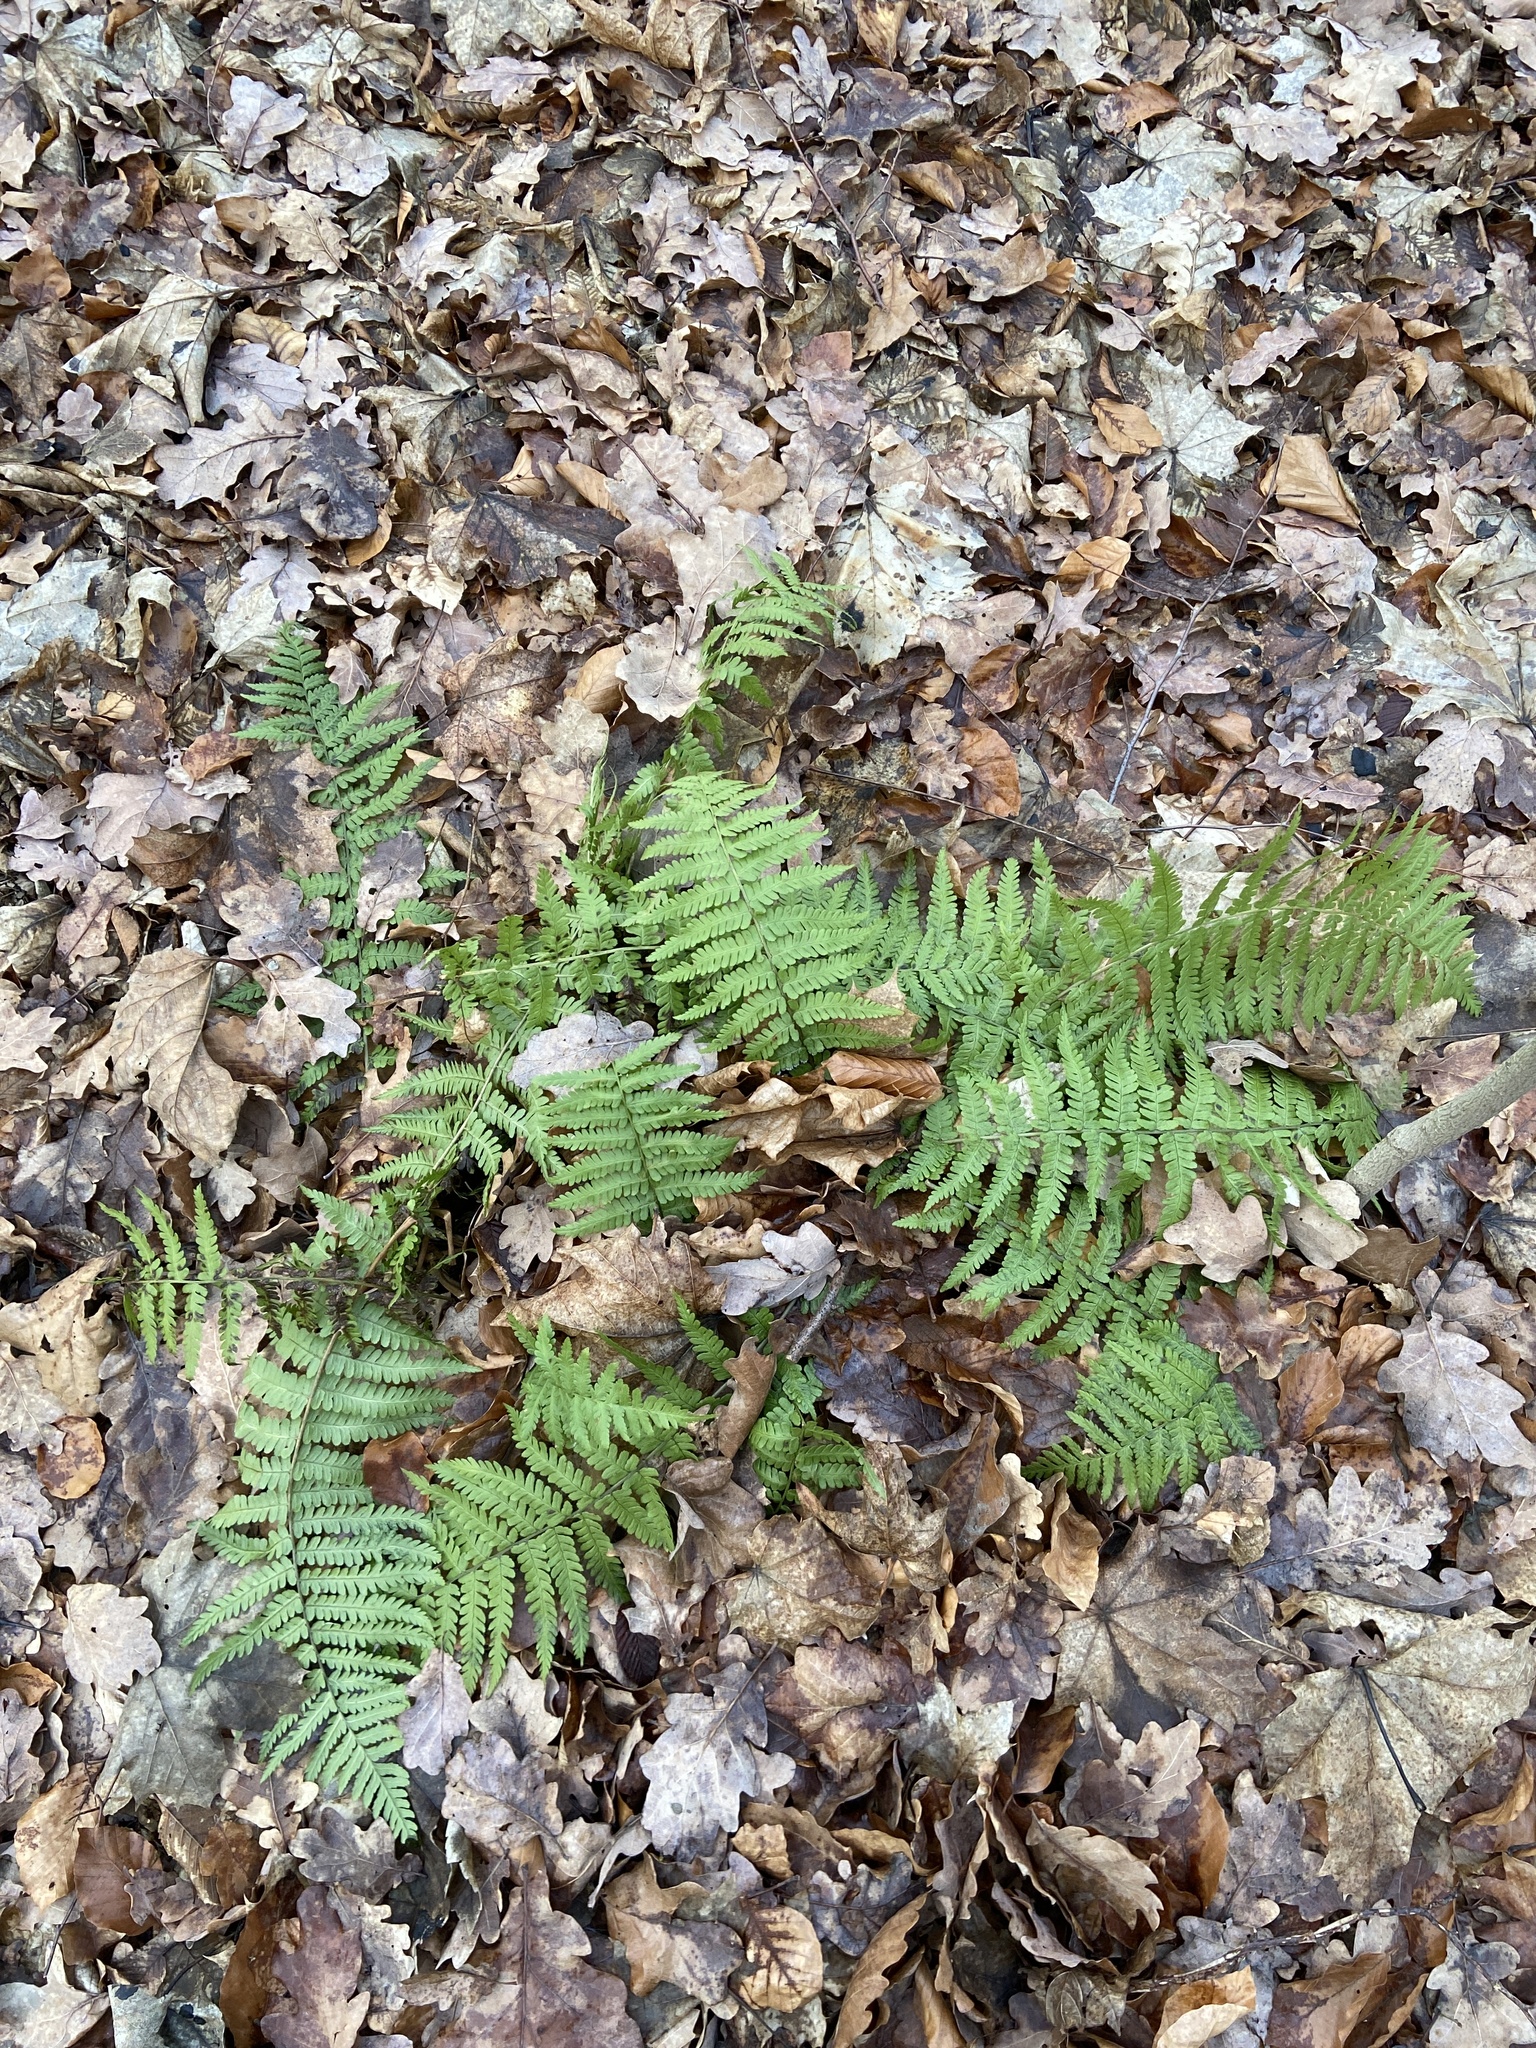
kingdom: Plantae
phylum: Tracheophyta
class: Polypodiopsida
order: Polypodiales
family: Dryopteridaceae
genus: Dryopteris
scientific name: Dryopteris filix-mas
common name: Male fern
